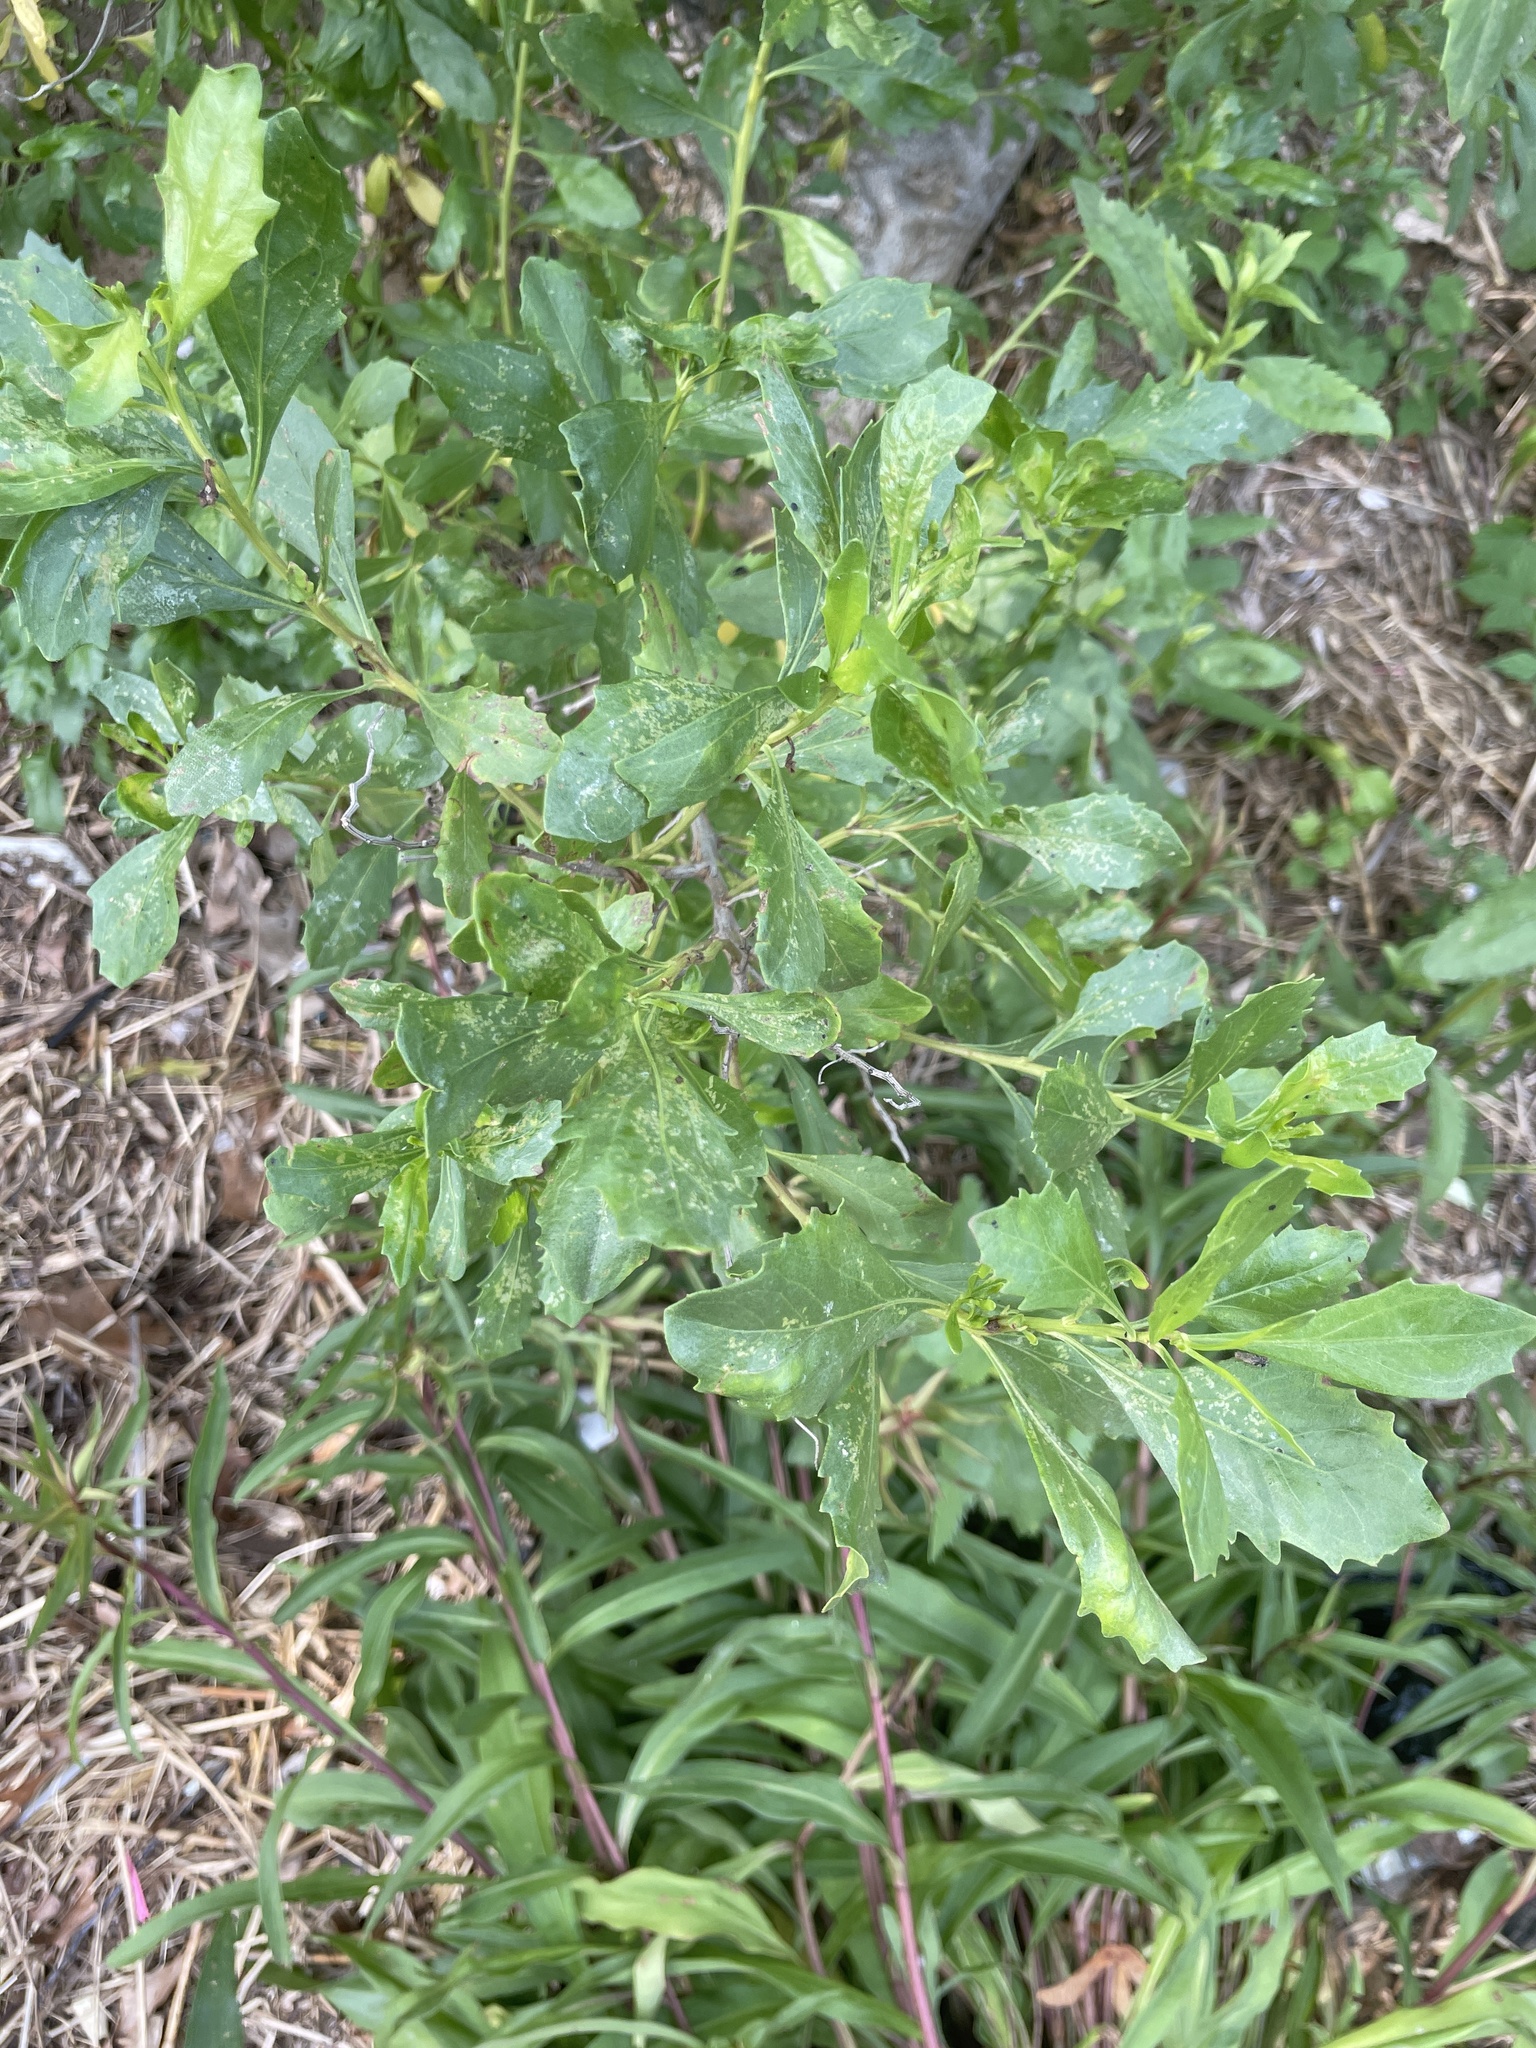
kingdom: Plantae
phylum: Tracheophyta
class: Magnoliopsida
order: Asterales
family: Asteraceae
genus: Baccharis
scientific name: Baccharis halimifolia
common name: Eastern baccharis
